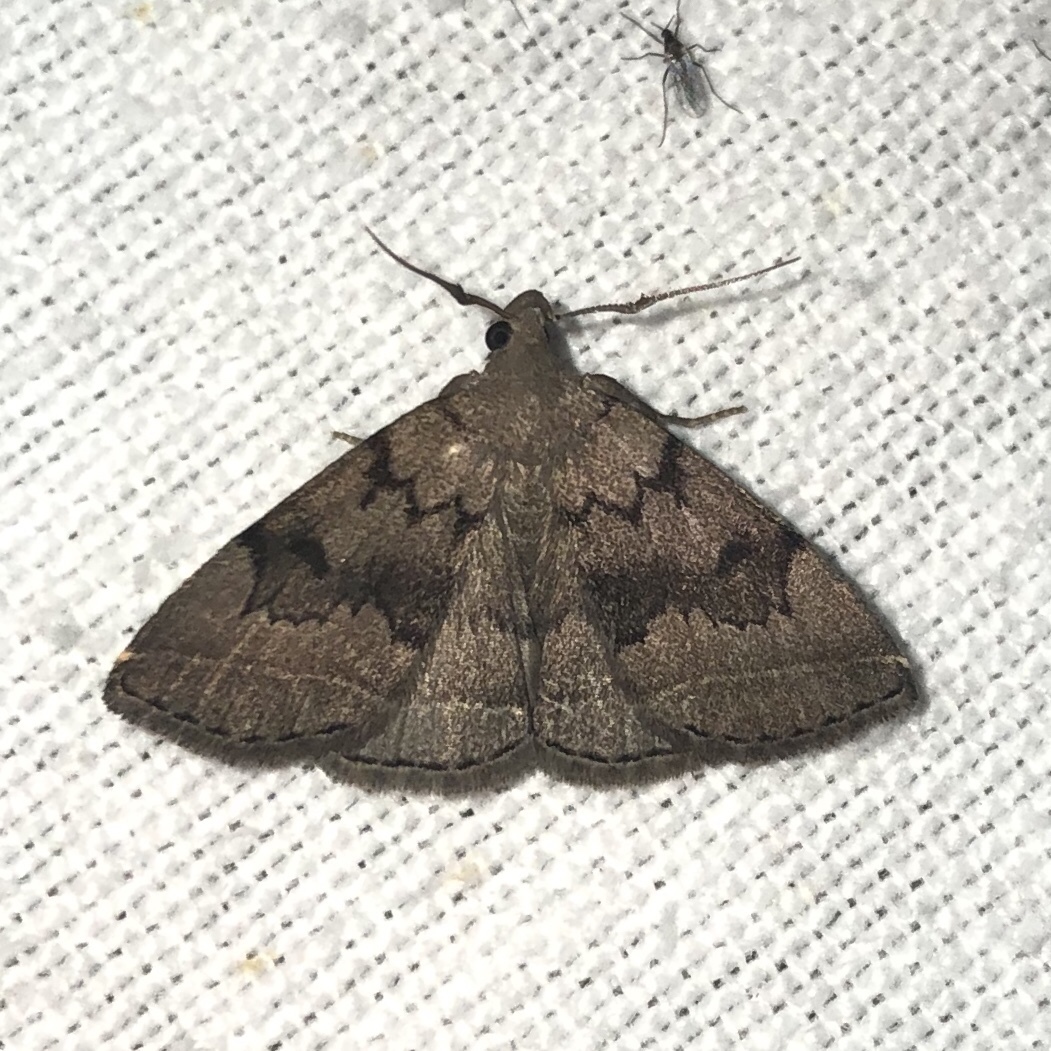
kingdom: Animalia
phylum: Arthropoda
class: Insecta
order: Lepidoptera
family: Erebidae
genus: Zanclognatha
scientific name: Zanclognatha dentata
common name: Toothed fan-foot
